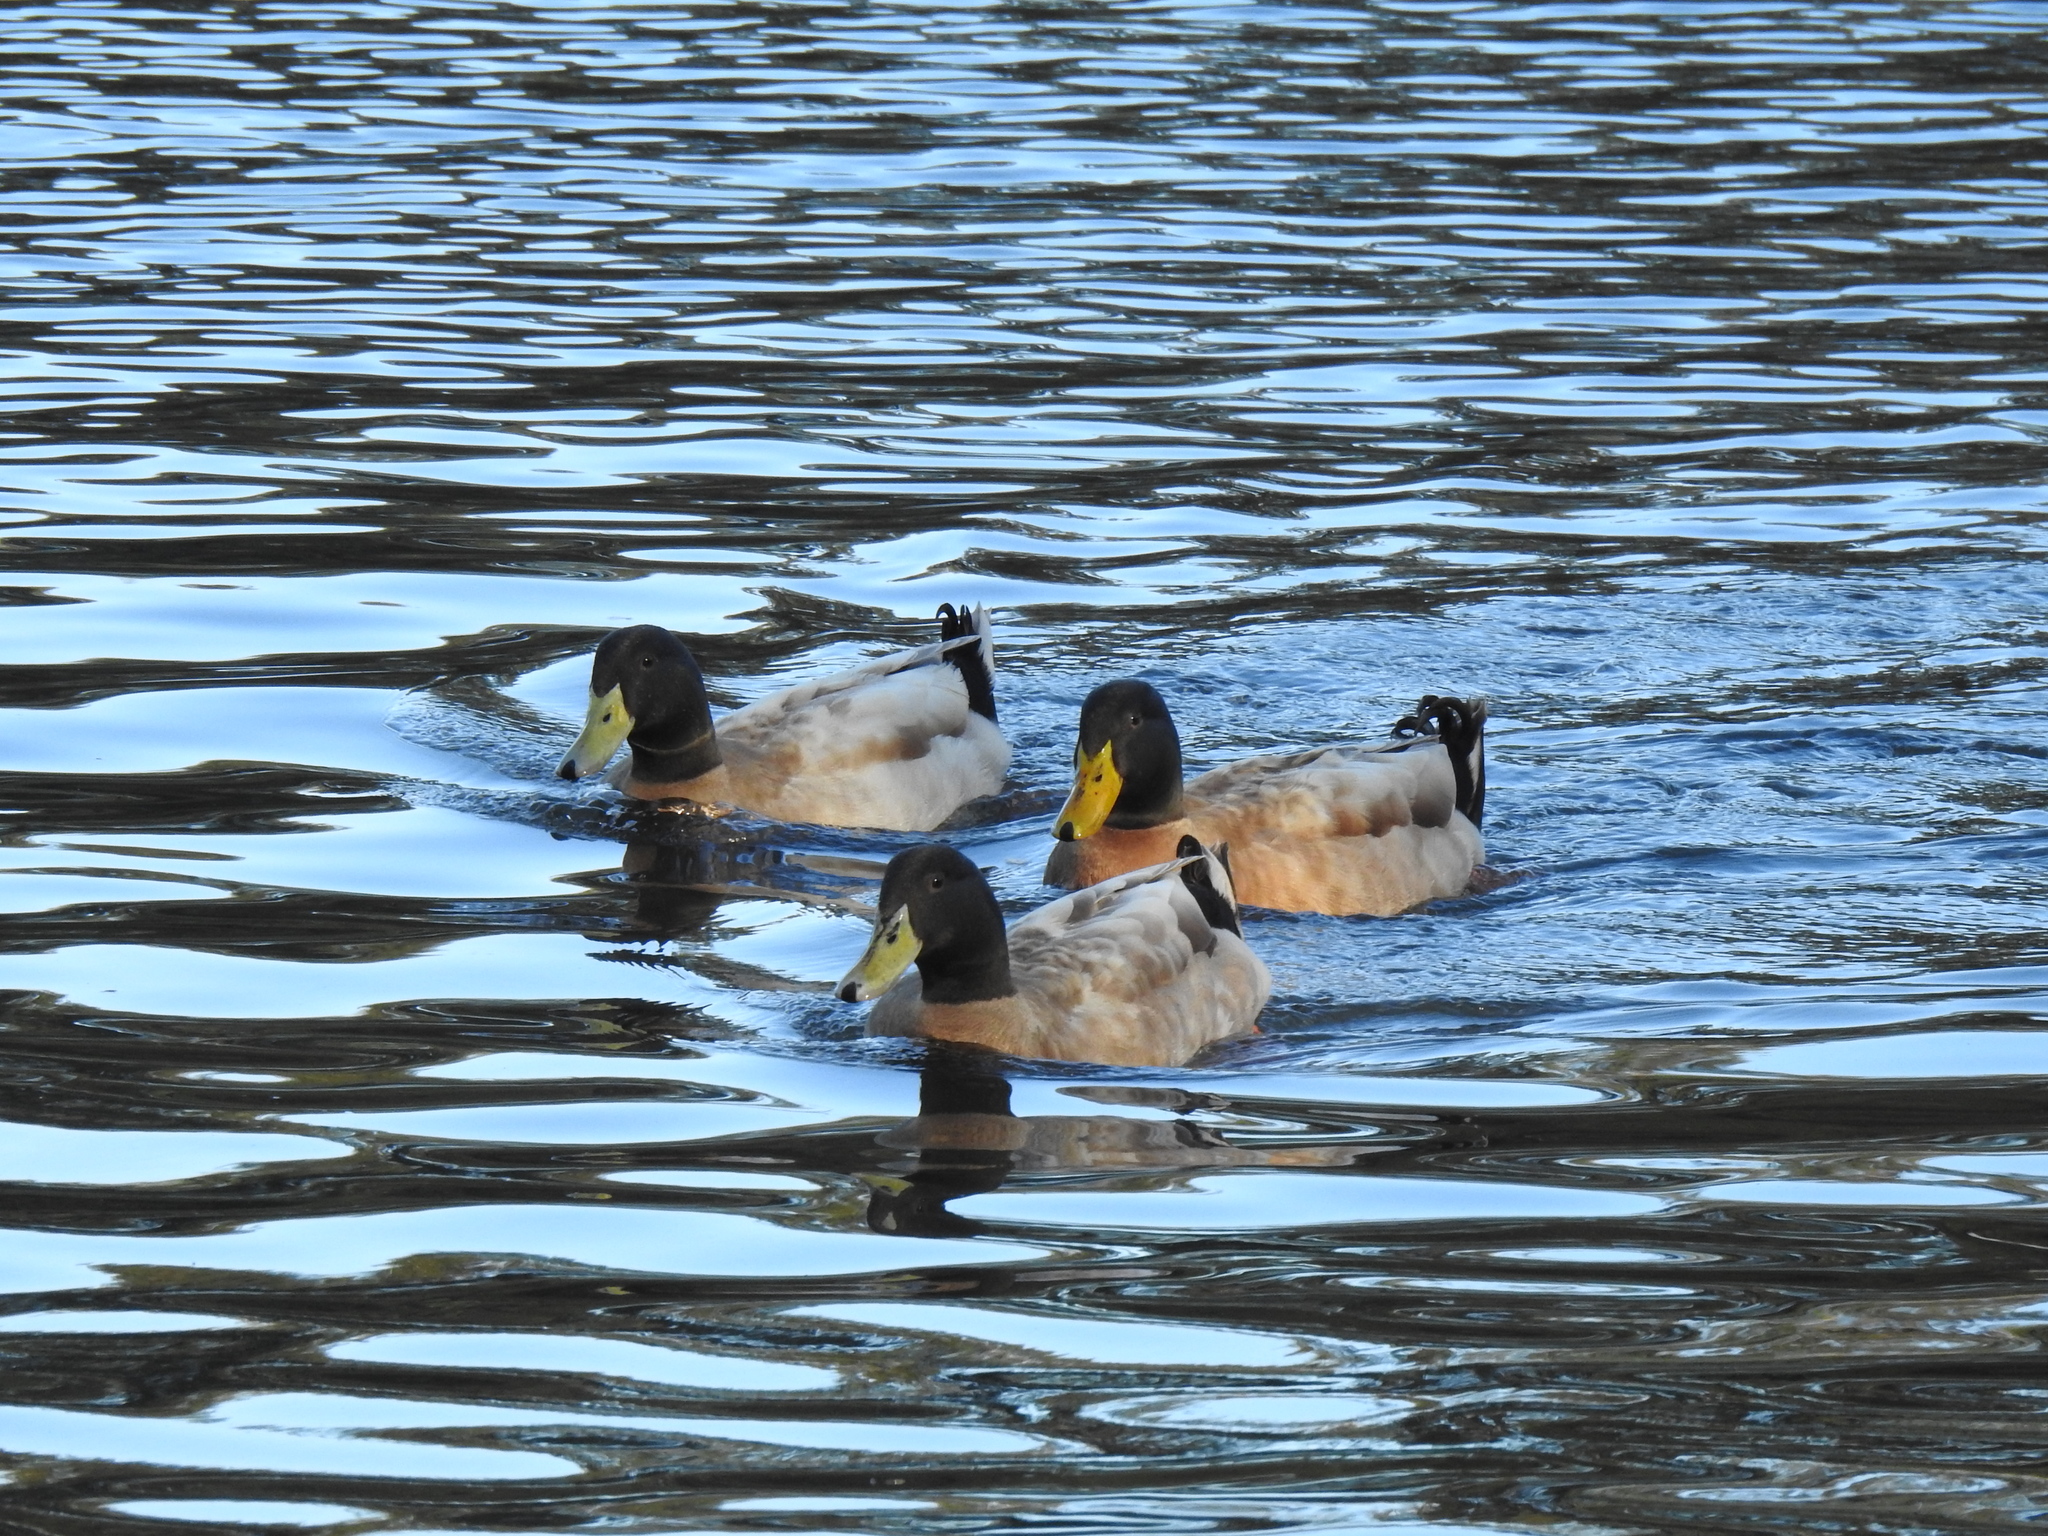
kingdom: Animalia
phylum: Chordata
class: Aves
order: Anseriformes
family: Anatidae
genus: Anas
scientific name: Anas platyrhynchos
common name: Mallard
